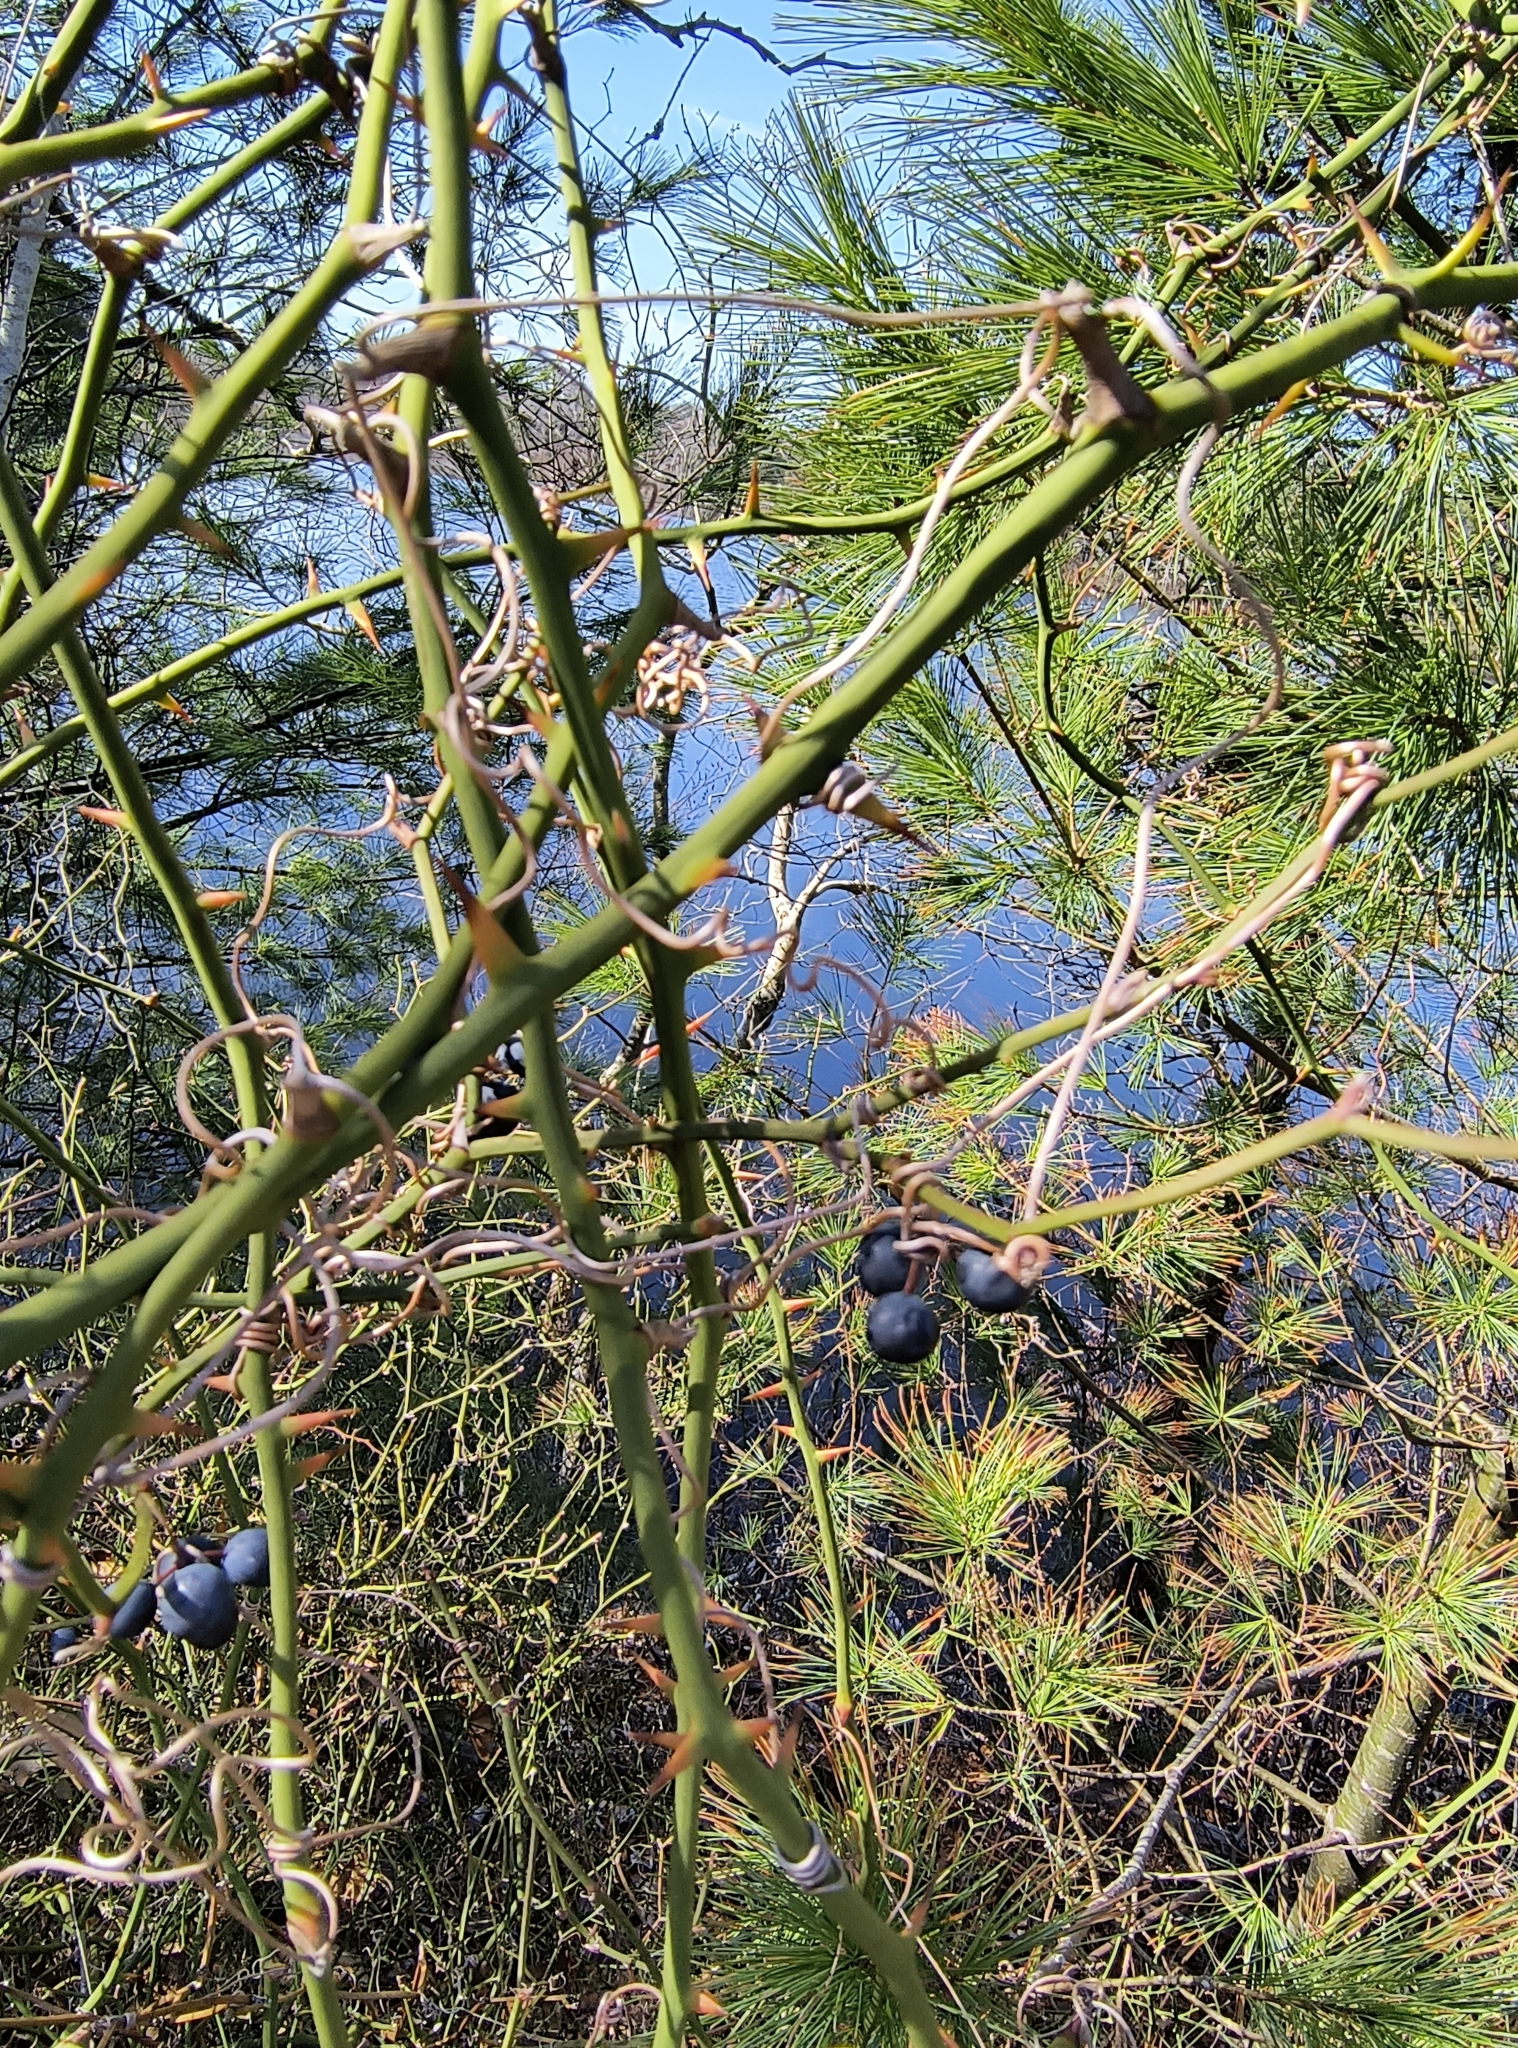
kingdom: Plantae
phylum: Tracheophyta
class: Liliopsida
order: Liliales
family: Smilacaceae
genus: Smilax
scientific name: Smilax rotundifolia
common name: Bullbriar
